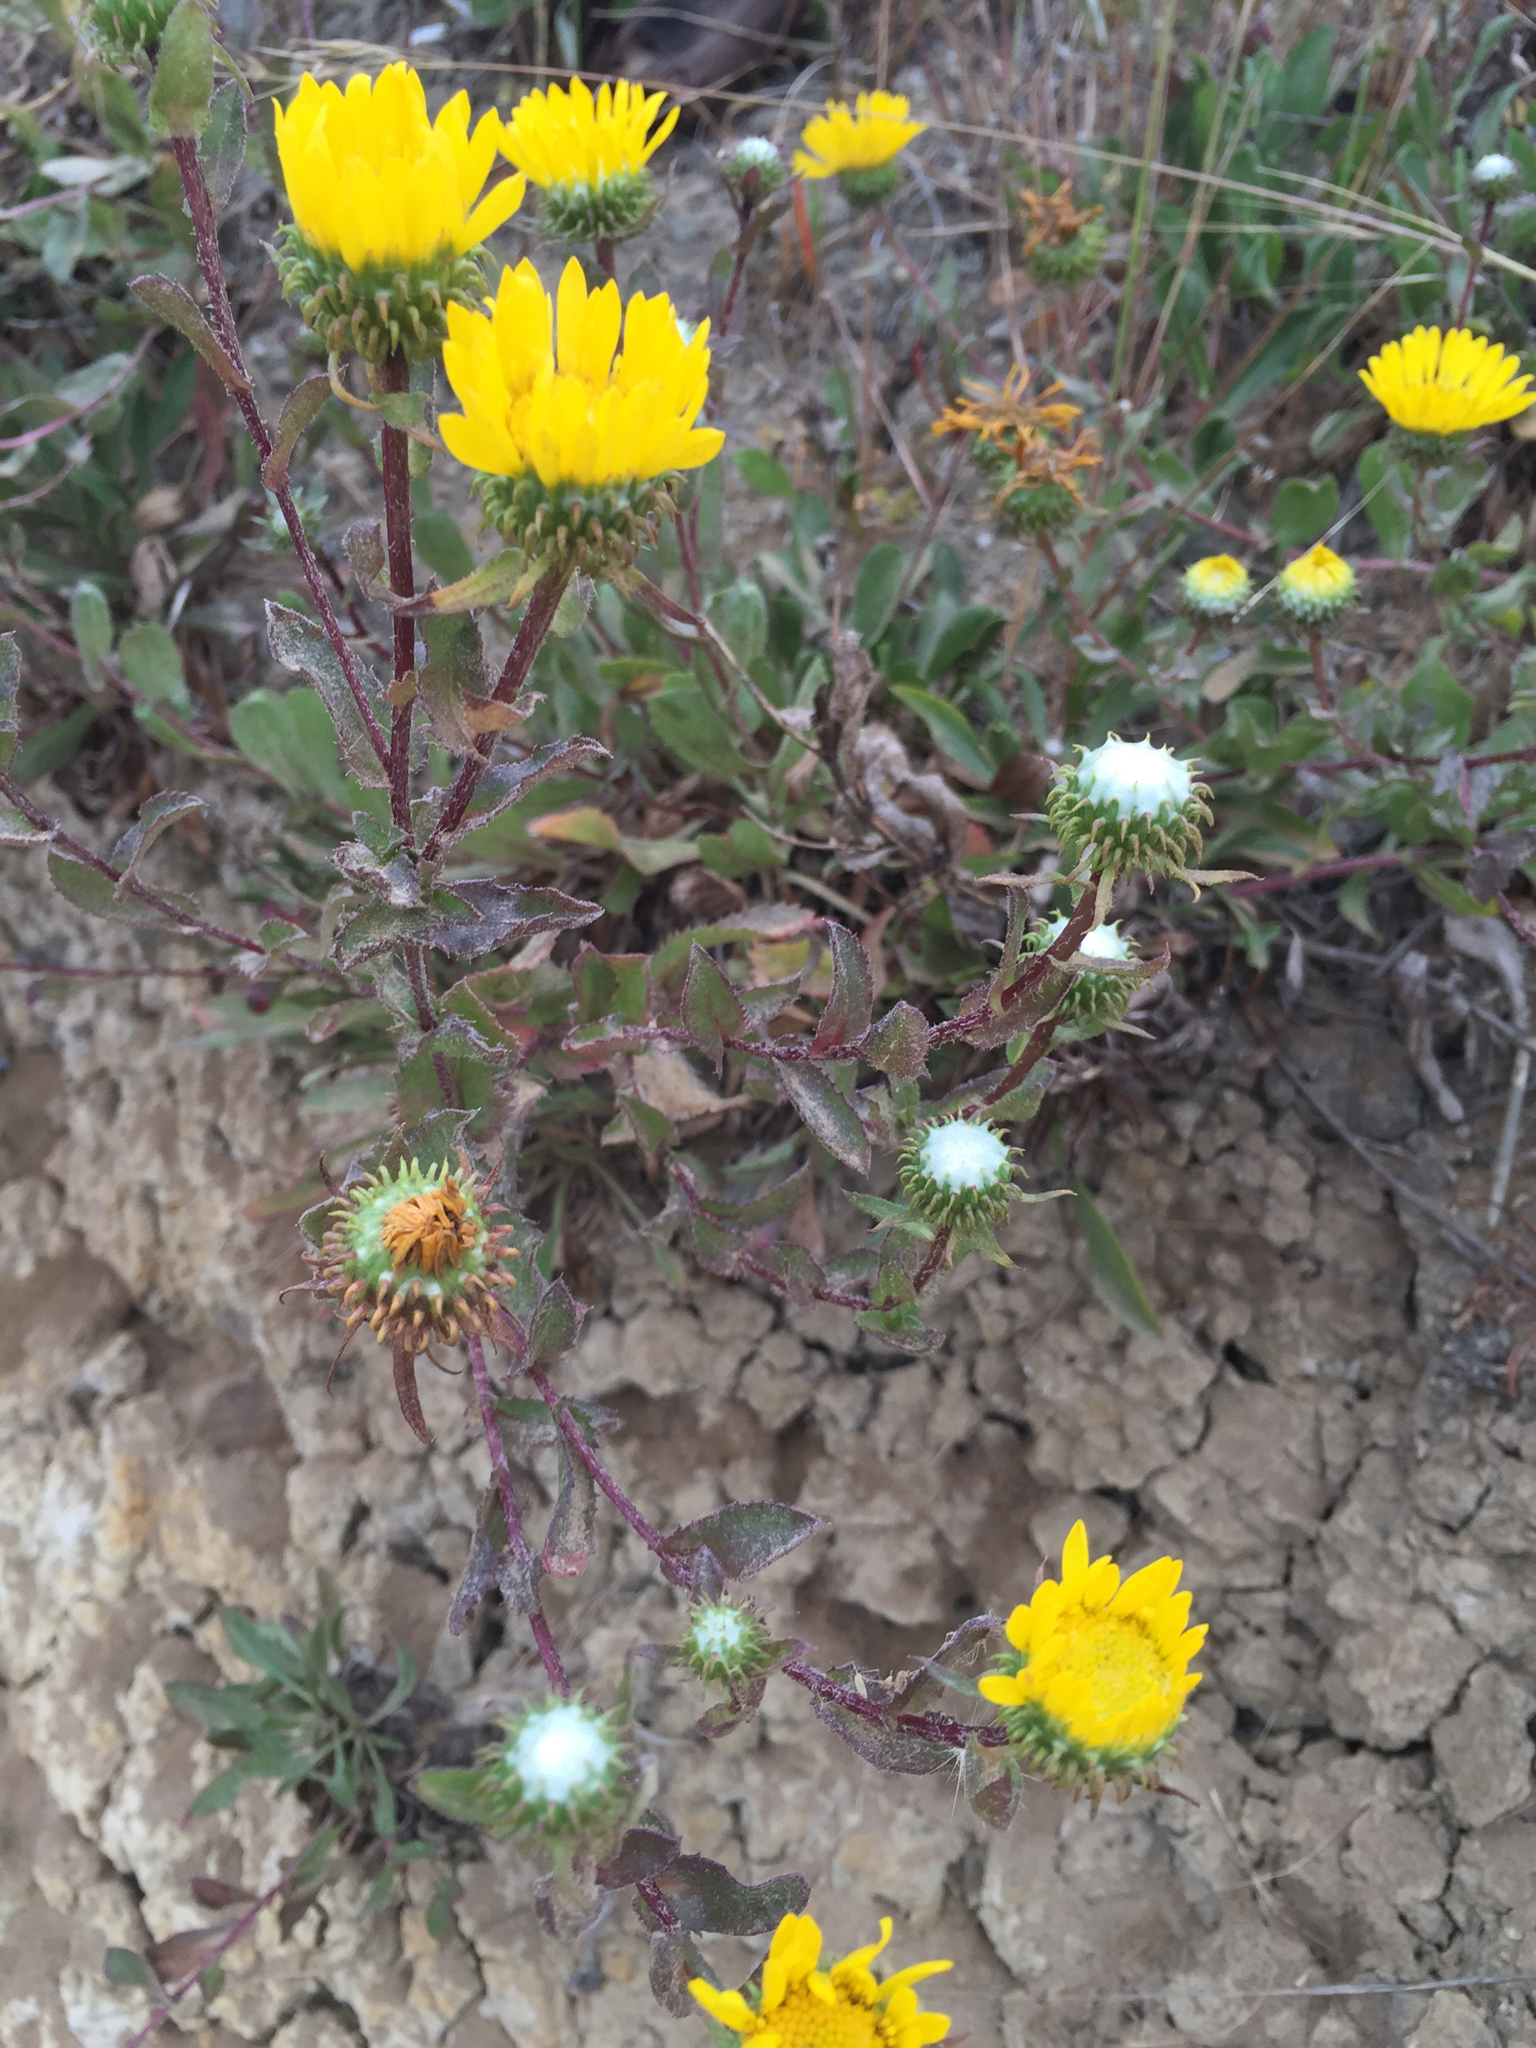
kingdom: Plantae
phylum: Tracheophyta
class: Magnoliopsida
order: Asterales
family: Asteraceae
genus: Grindelia
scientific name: Grindelia hirsutula
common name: Hairy gumweed
